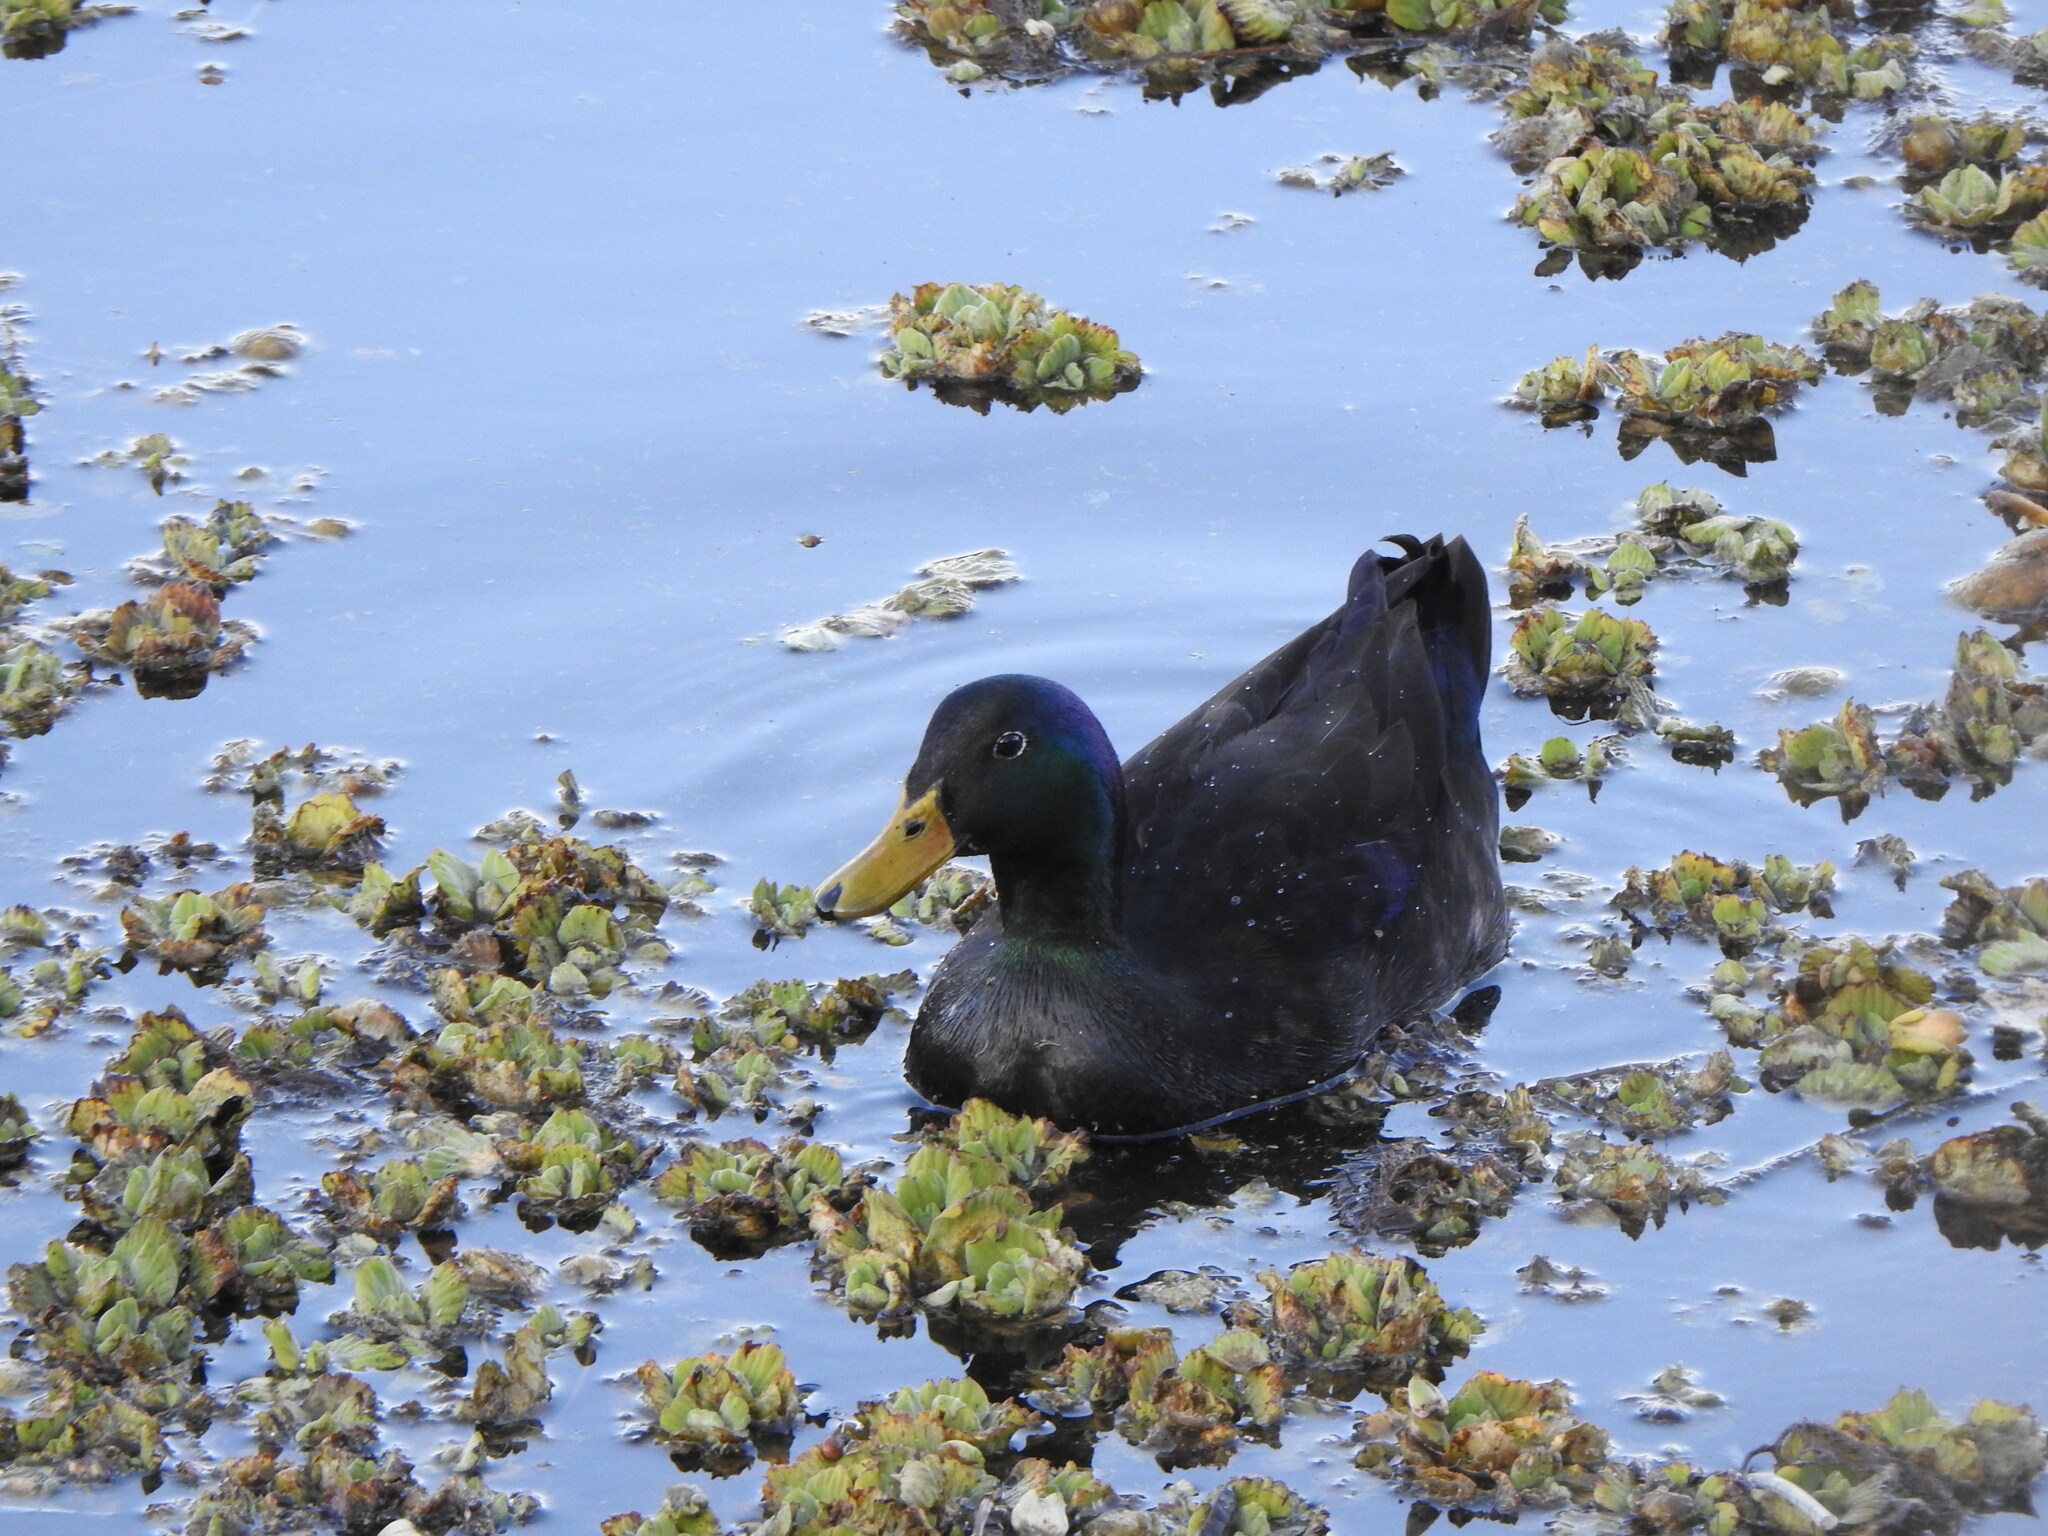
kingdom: Animalia
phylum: Chordata
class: Aves
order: Anseriformes
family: Anatidae
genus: Anas
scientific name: Anas platyrhynchos
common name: Mallard
